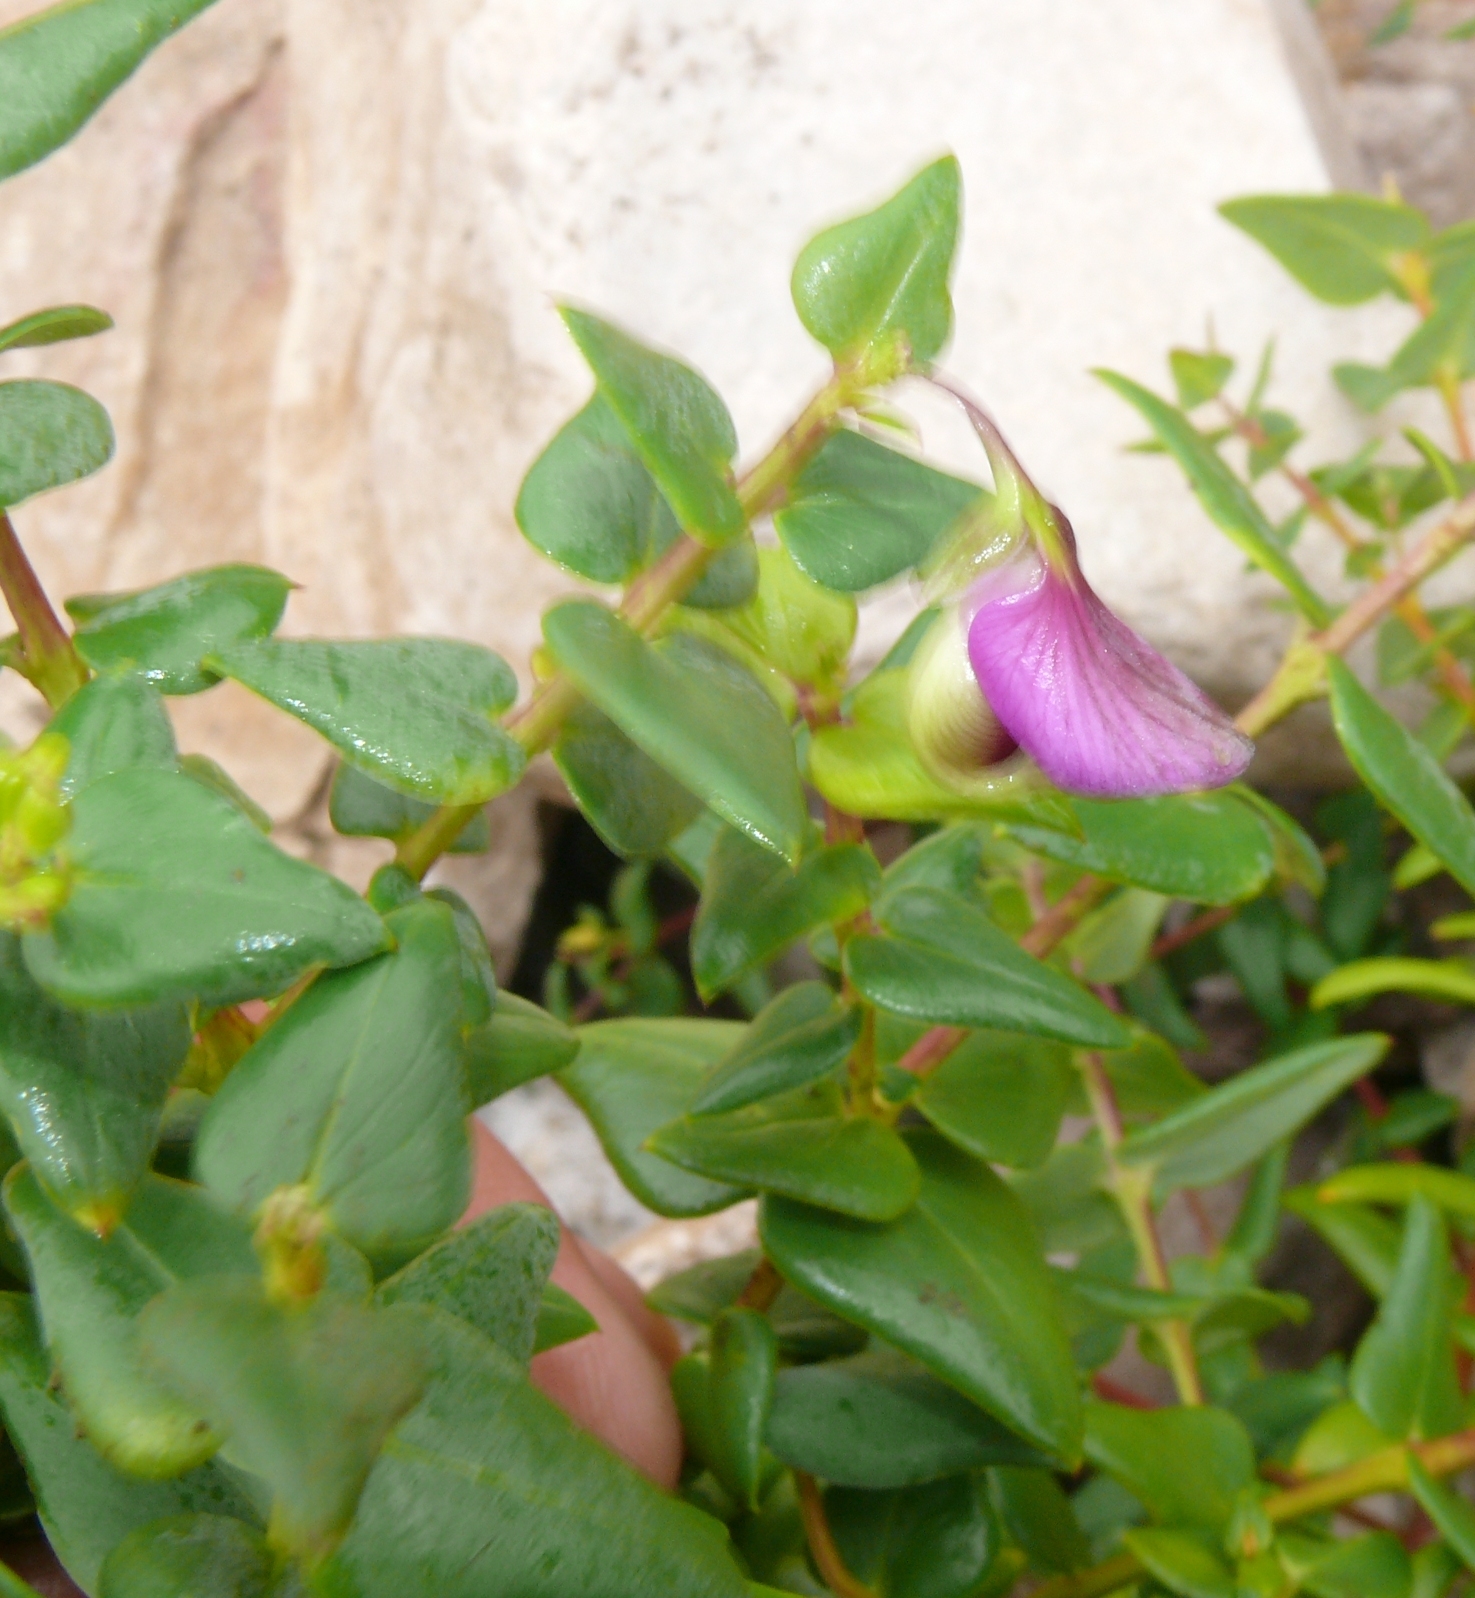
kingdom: Plantae
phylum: Tracheophyta
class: Magnoliopsida
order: Fabales
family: Polygalaceae
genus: Polygala
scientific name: Polygala fruticosa
